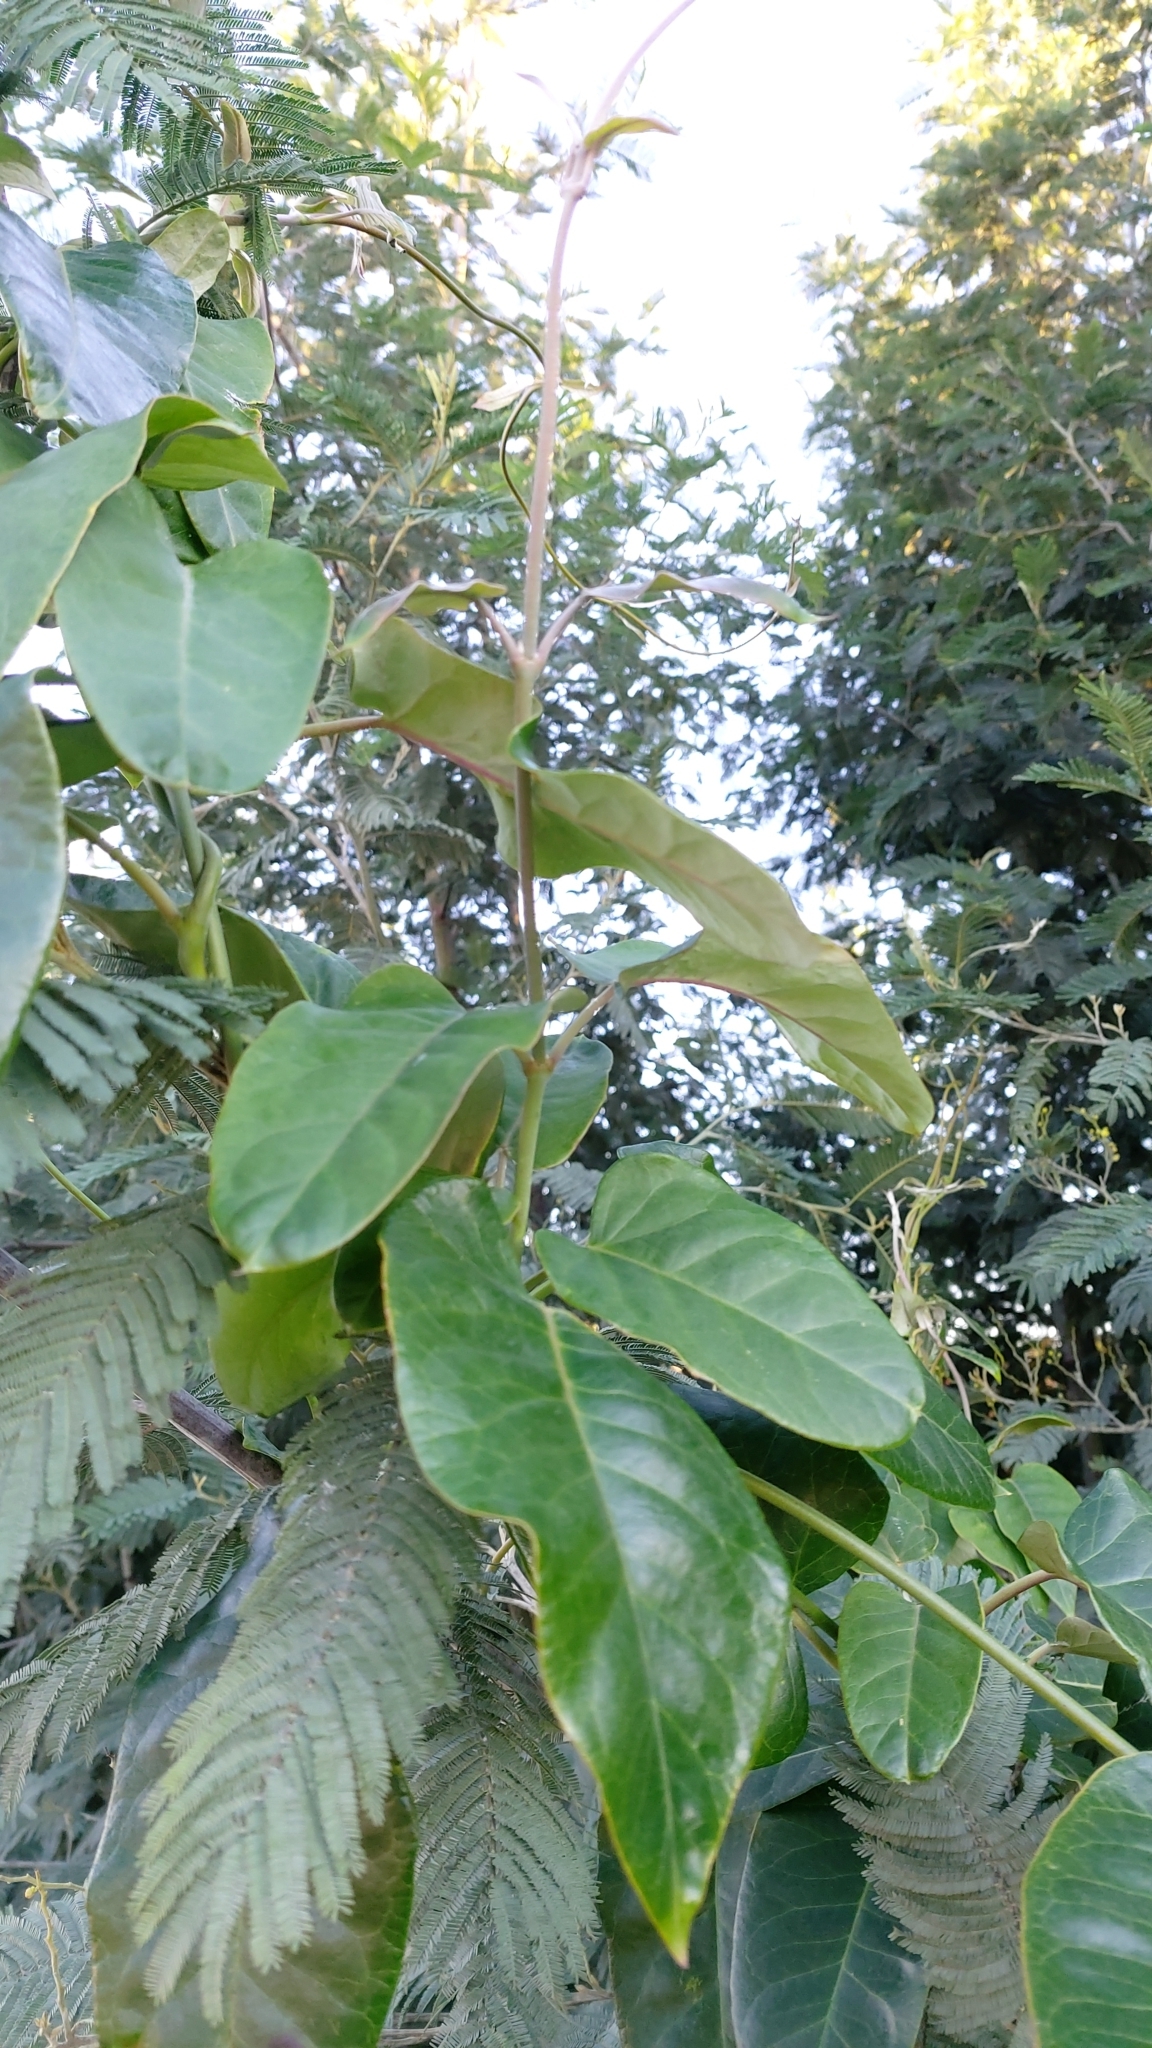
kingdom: Plantae
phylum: Tracheophyta
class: Magnoliopsida
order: Gentianales
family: Apocynaceae
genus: Araujia
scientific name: Araujia sericifera
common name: White bladderflower
